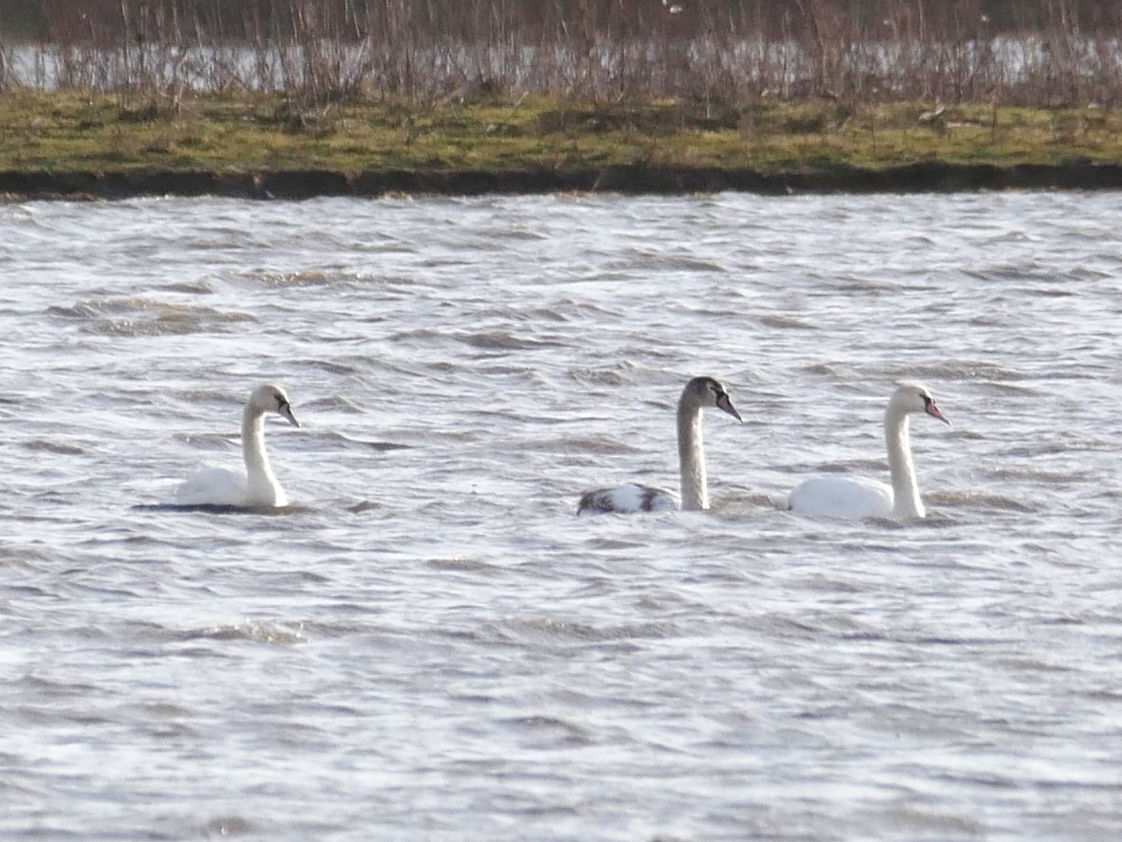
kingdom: Animalia
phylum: Chordata
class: Aves
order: Anseriformes
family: Anatidae
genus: Cygnus
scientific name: Cygnus olor
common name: Mute swan
